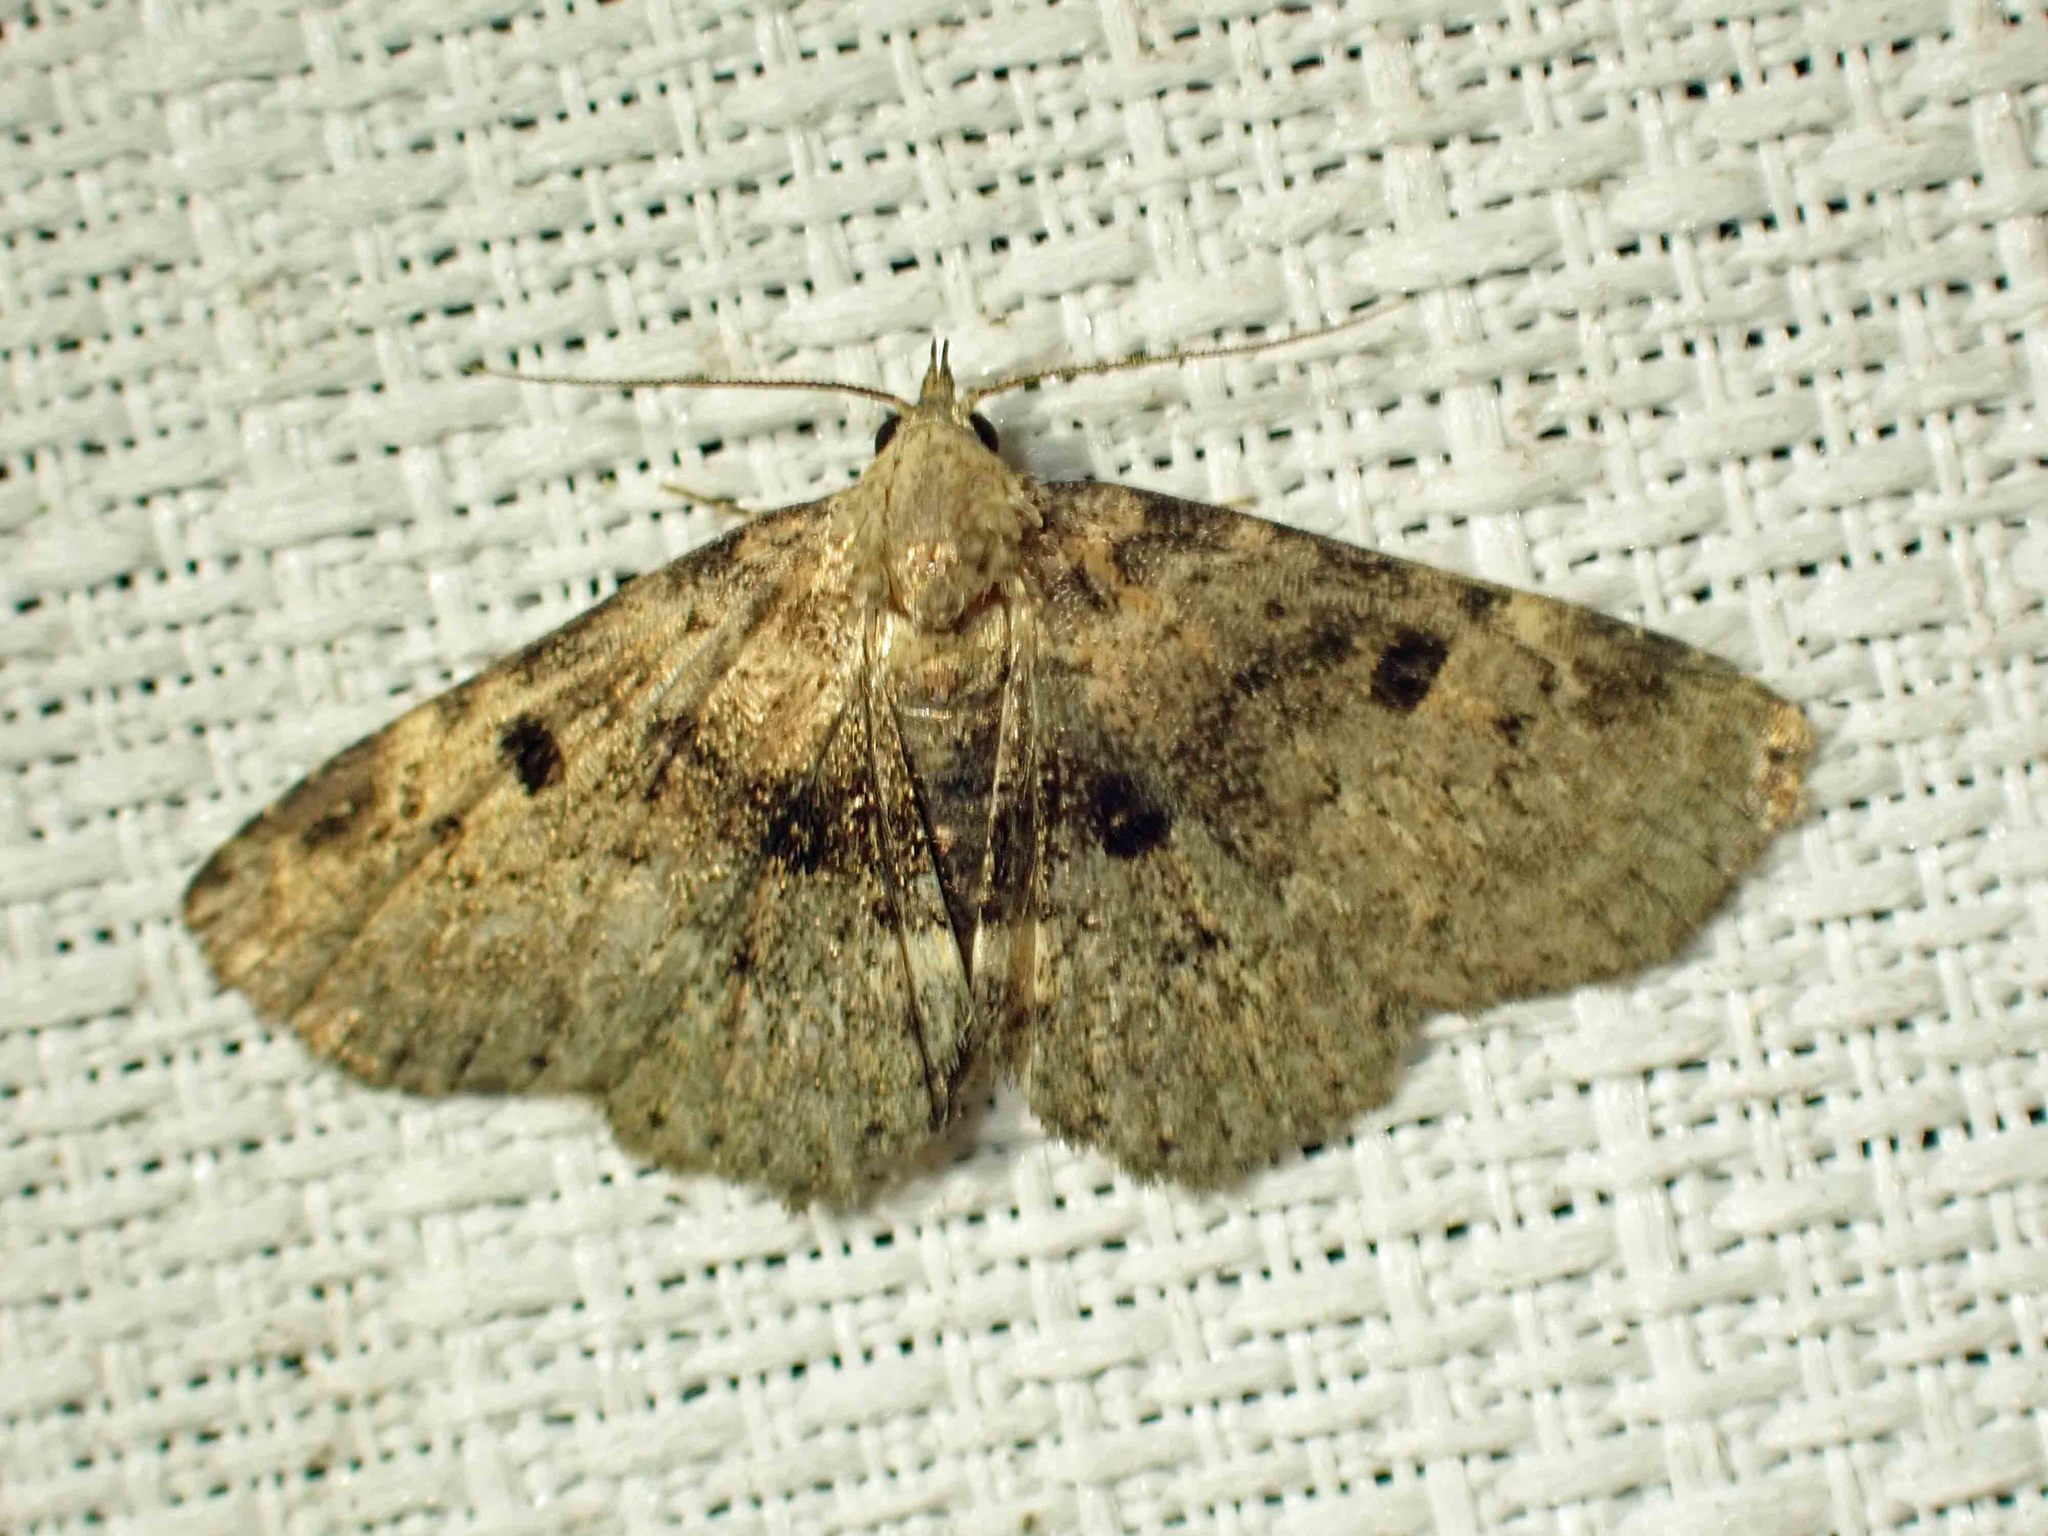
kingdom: Animalia
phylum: Arthropoda
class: Insecta
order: Lepidoptera
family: Erebidae
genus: Metalectra
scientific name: Metalectra quadrisignata
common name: Four-spotted fungus moth
